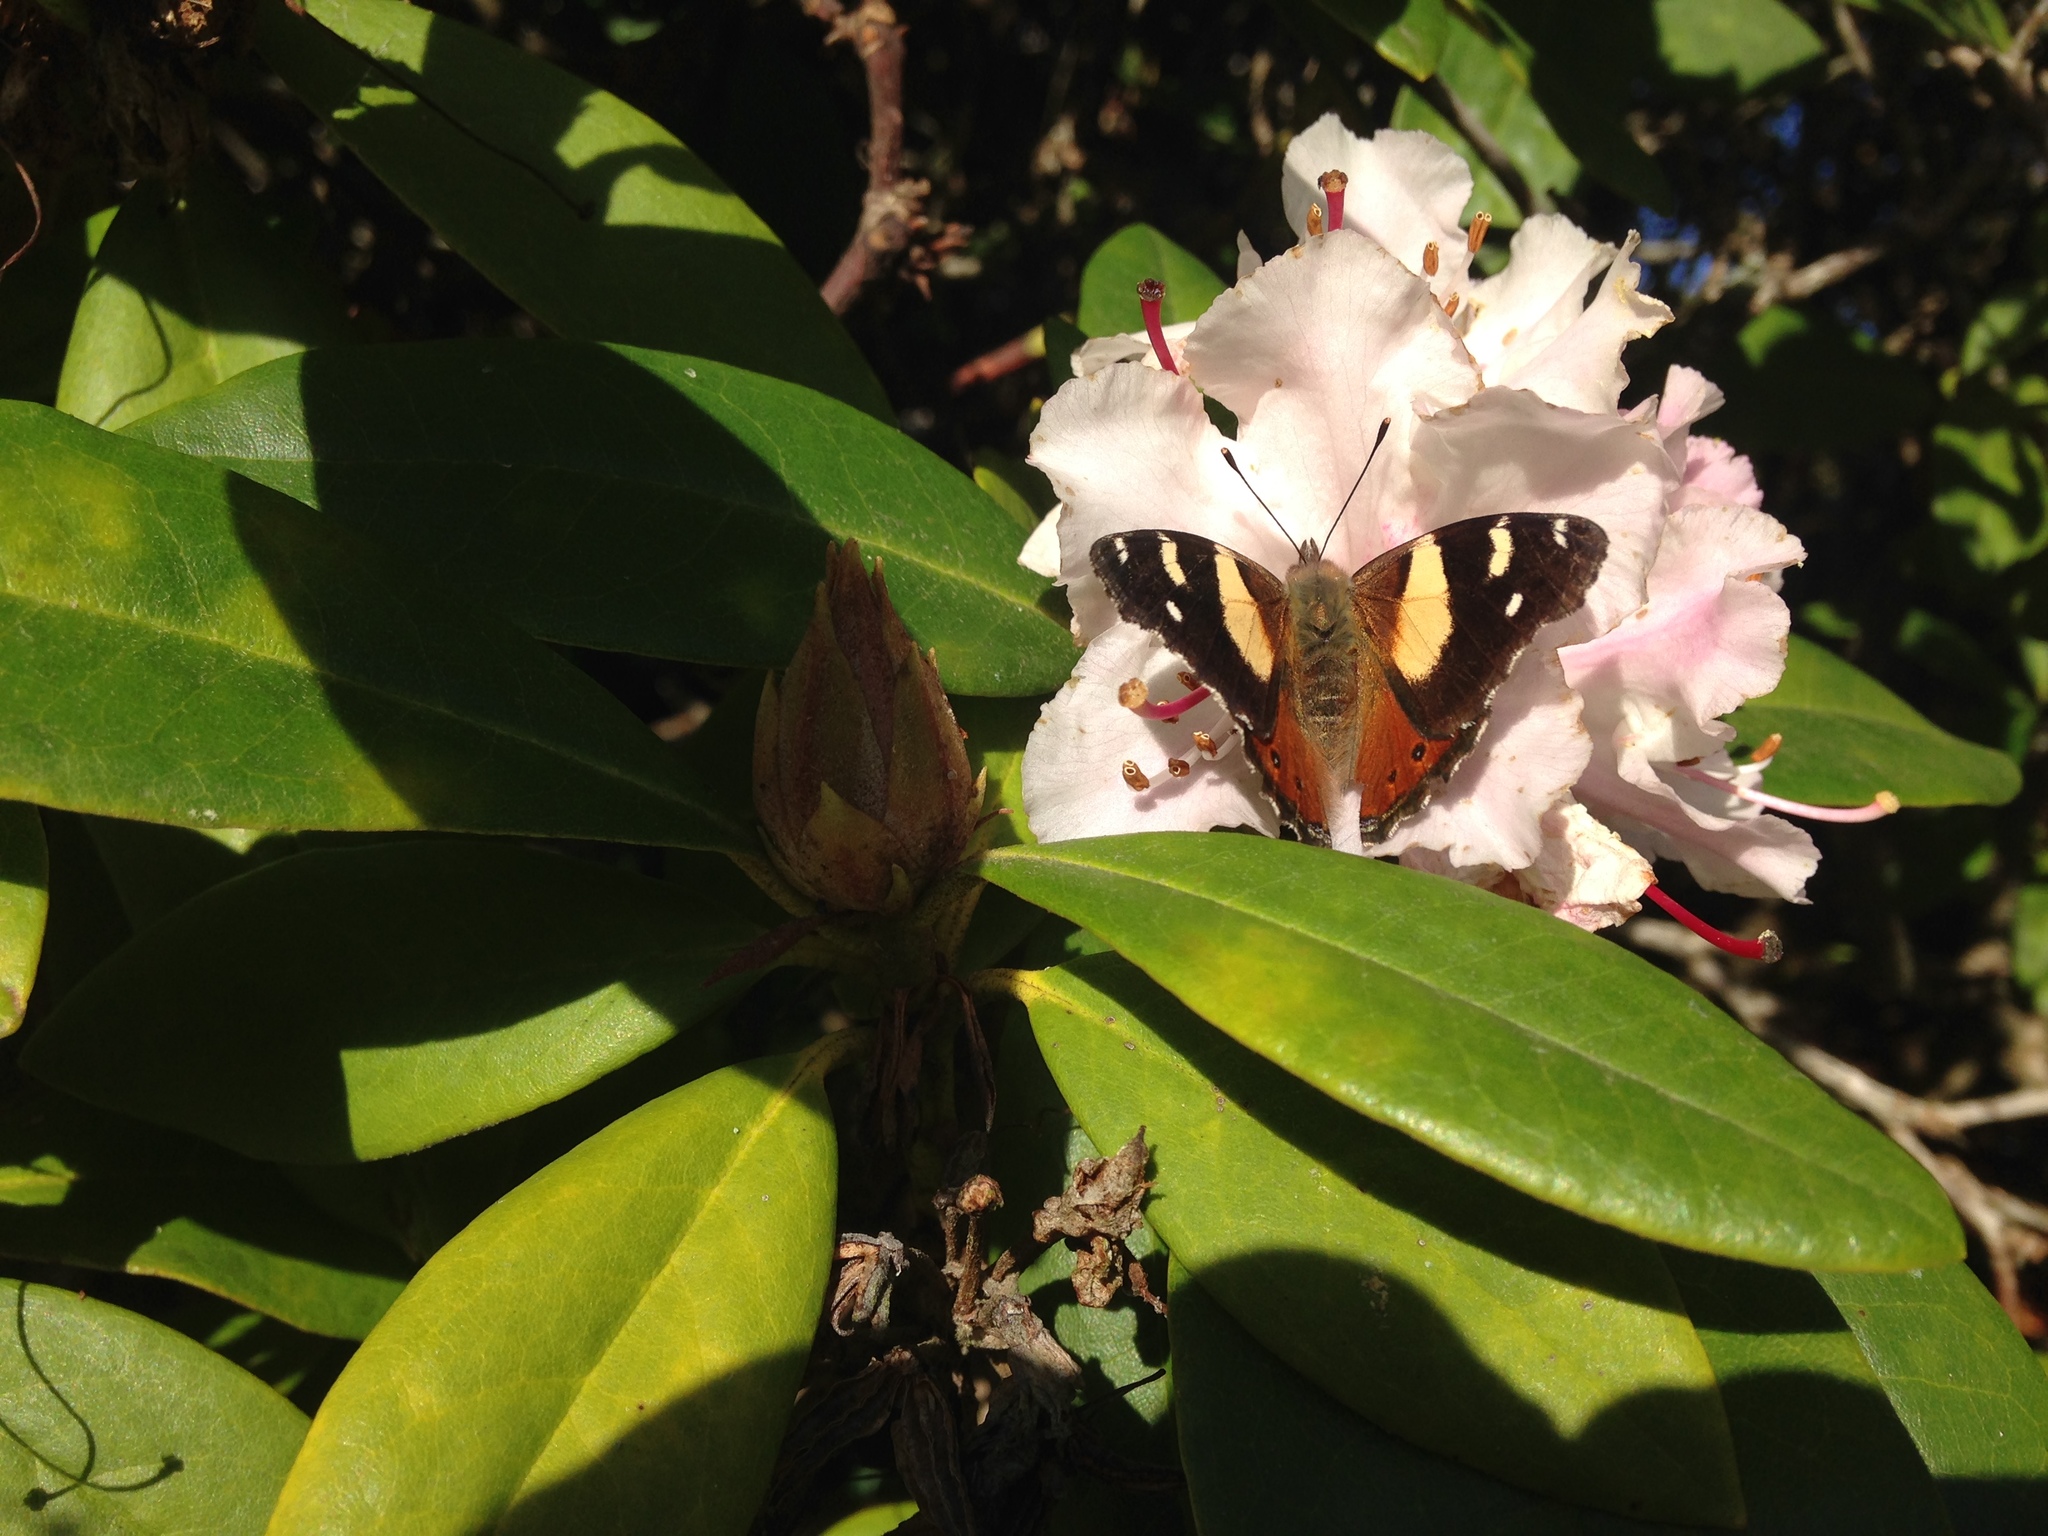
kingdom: Animalia
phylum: Arthropoda
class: Insecta
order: Lepidoptera
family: Nymphalidae
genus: Vanessa
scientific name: Vanessa itea
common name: Yellow admiral
